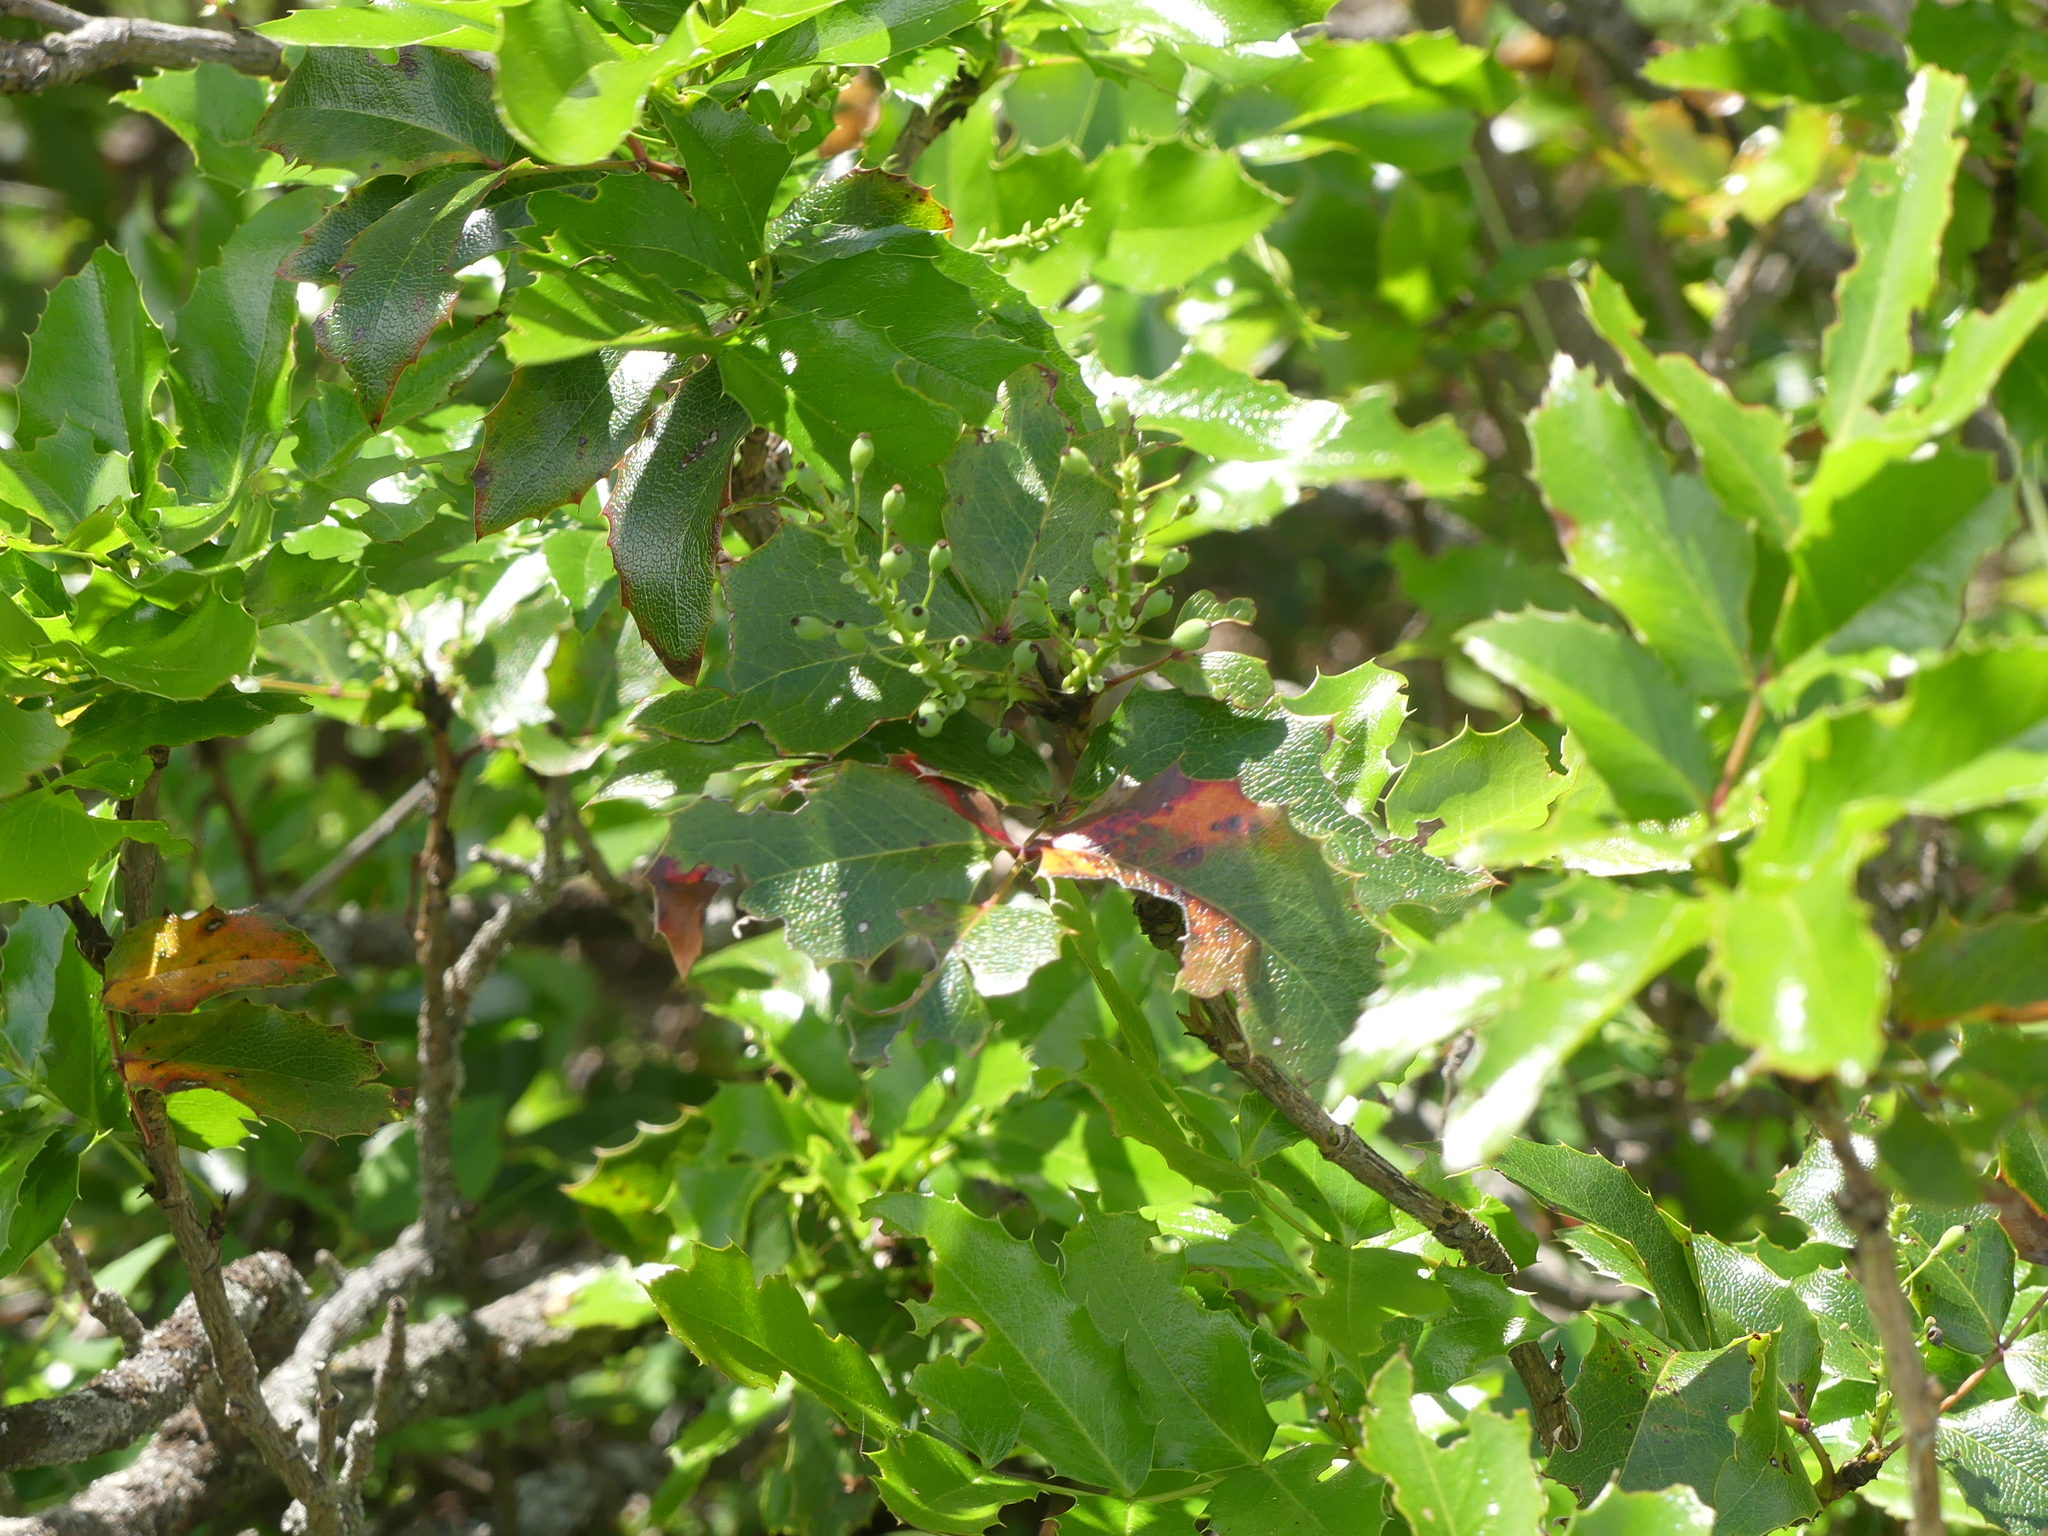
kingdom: Plantae
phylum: Tracheophyta
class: Magnoliopsida
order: Ranunculales
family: Berberidaceae
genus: Mahonia
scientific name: Mahonia aquifolium
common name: Oregon-grape
